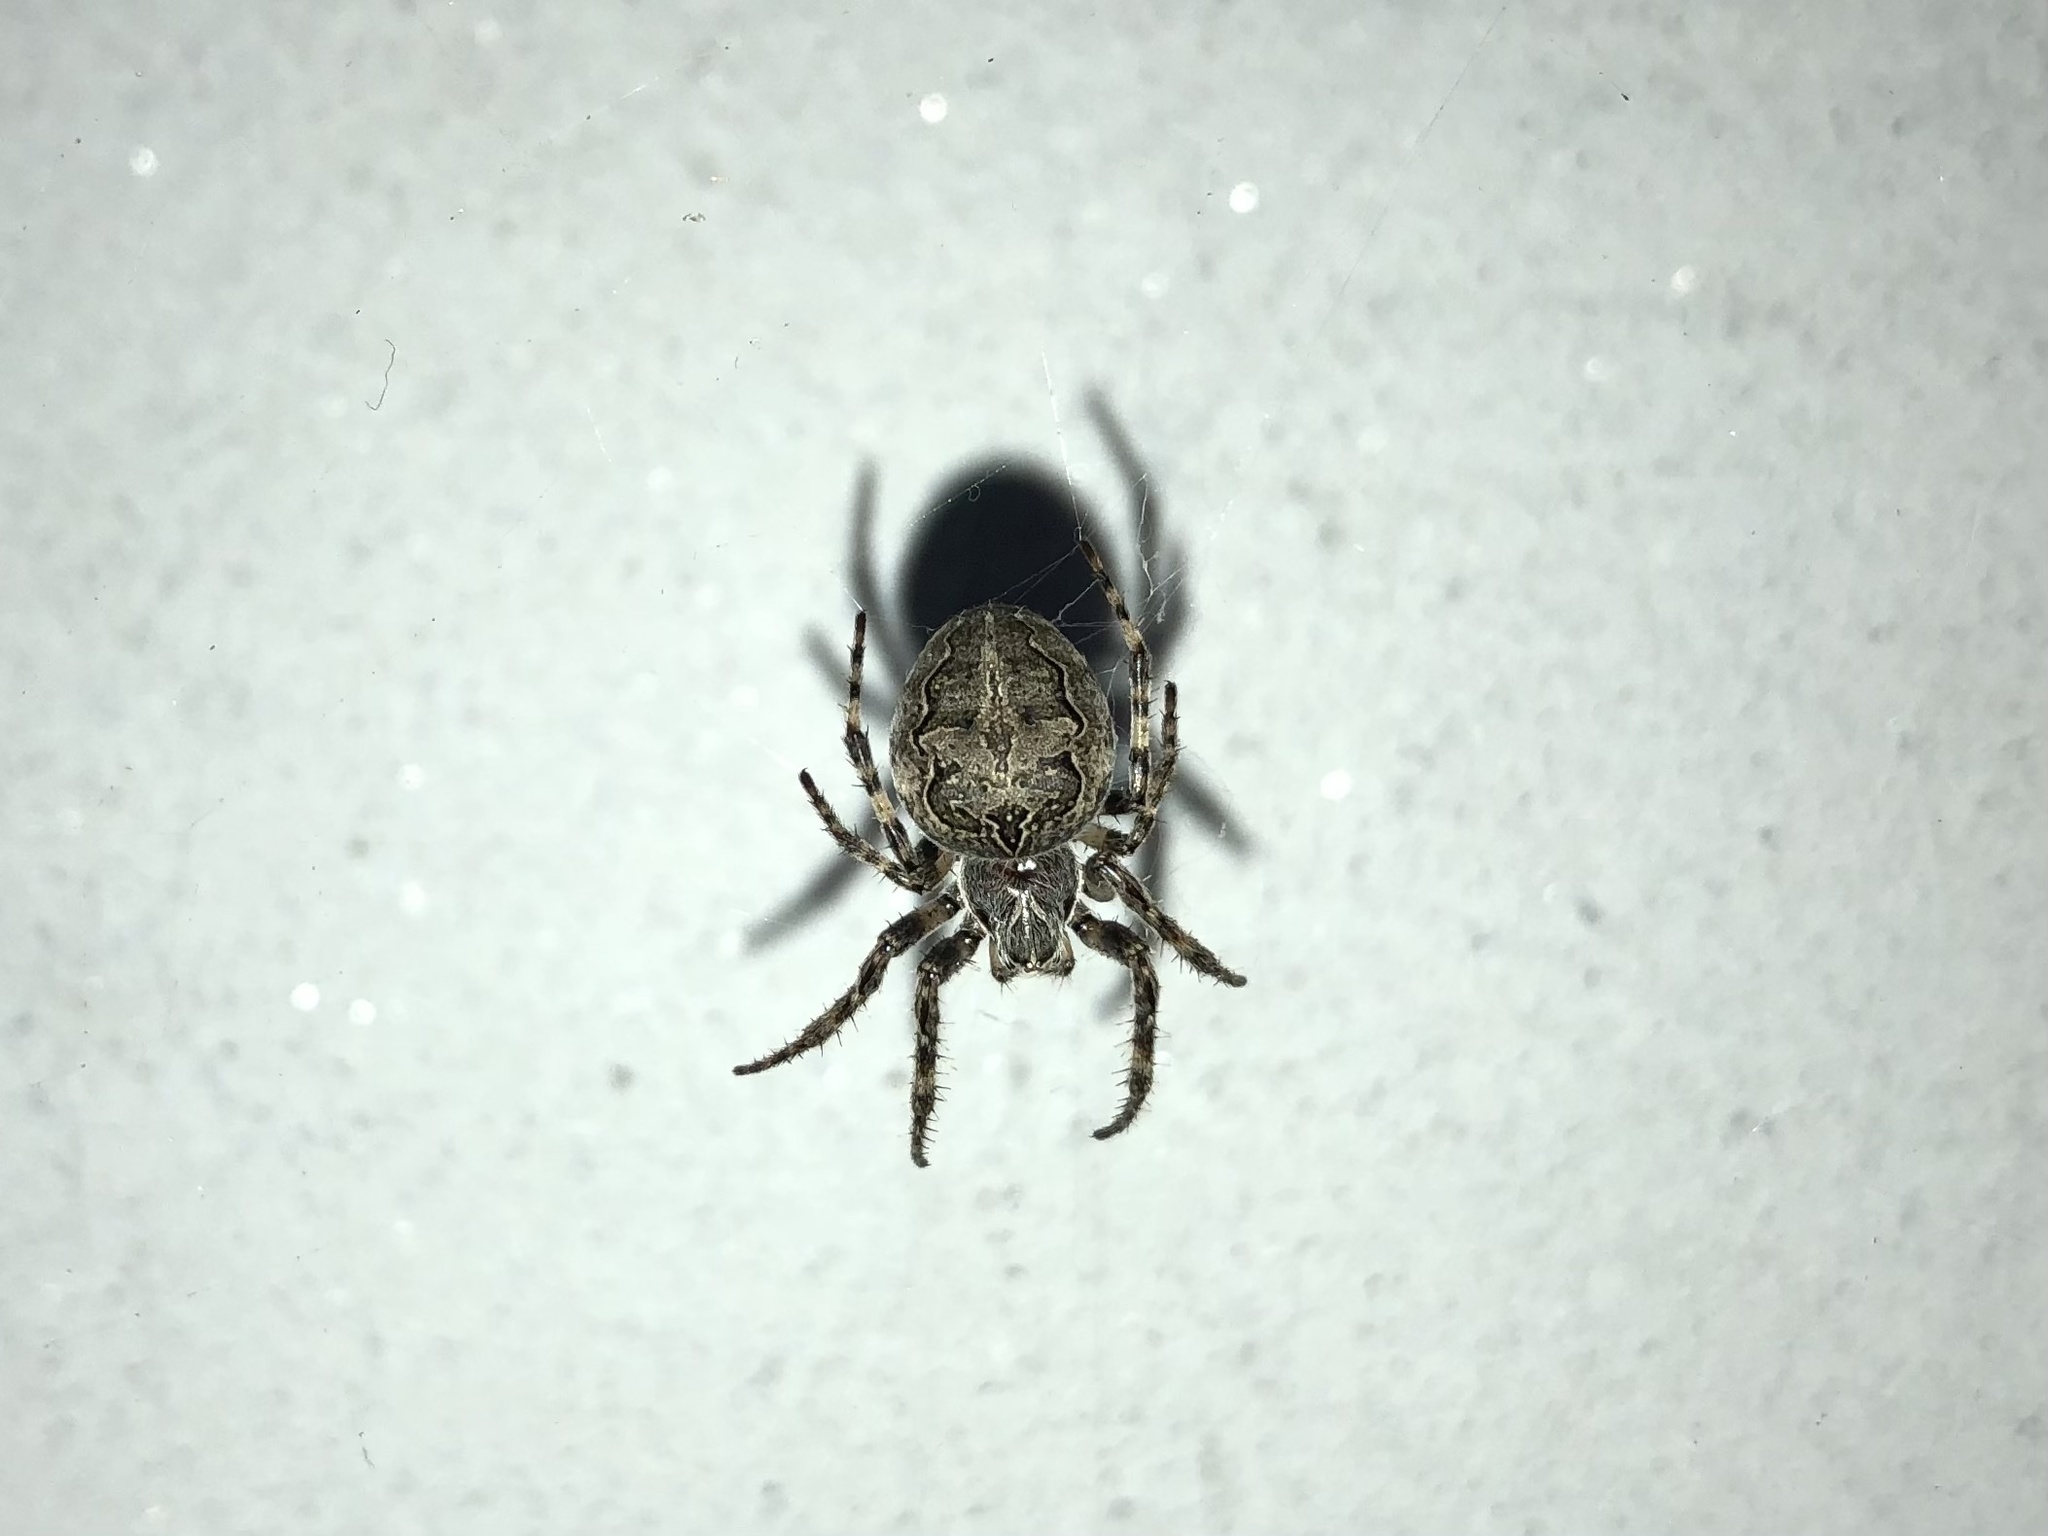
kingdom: Animalia
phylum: Arthropoda
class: Arachnida
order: Araneae
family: Araneidae
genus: Larinioides
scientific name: Larinioides sclopetarius
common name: Bridge orbweaver
